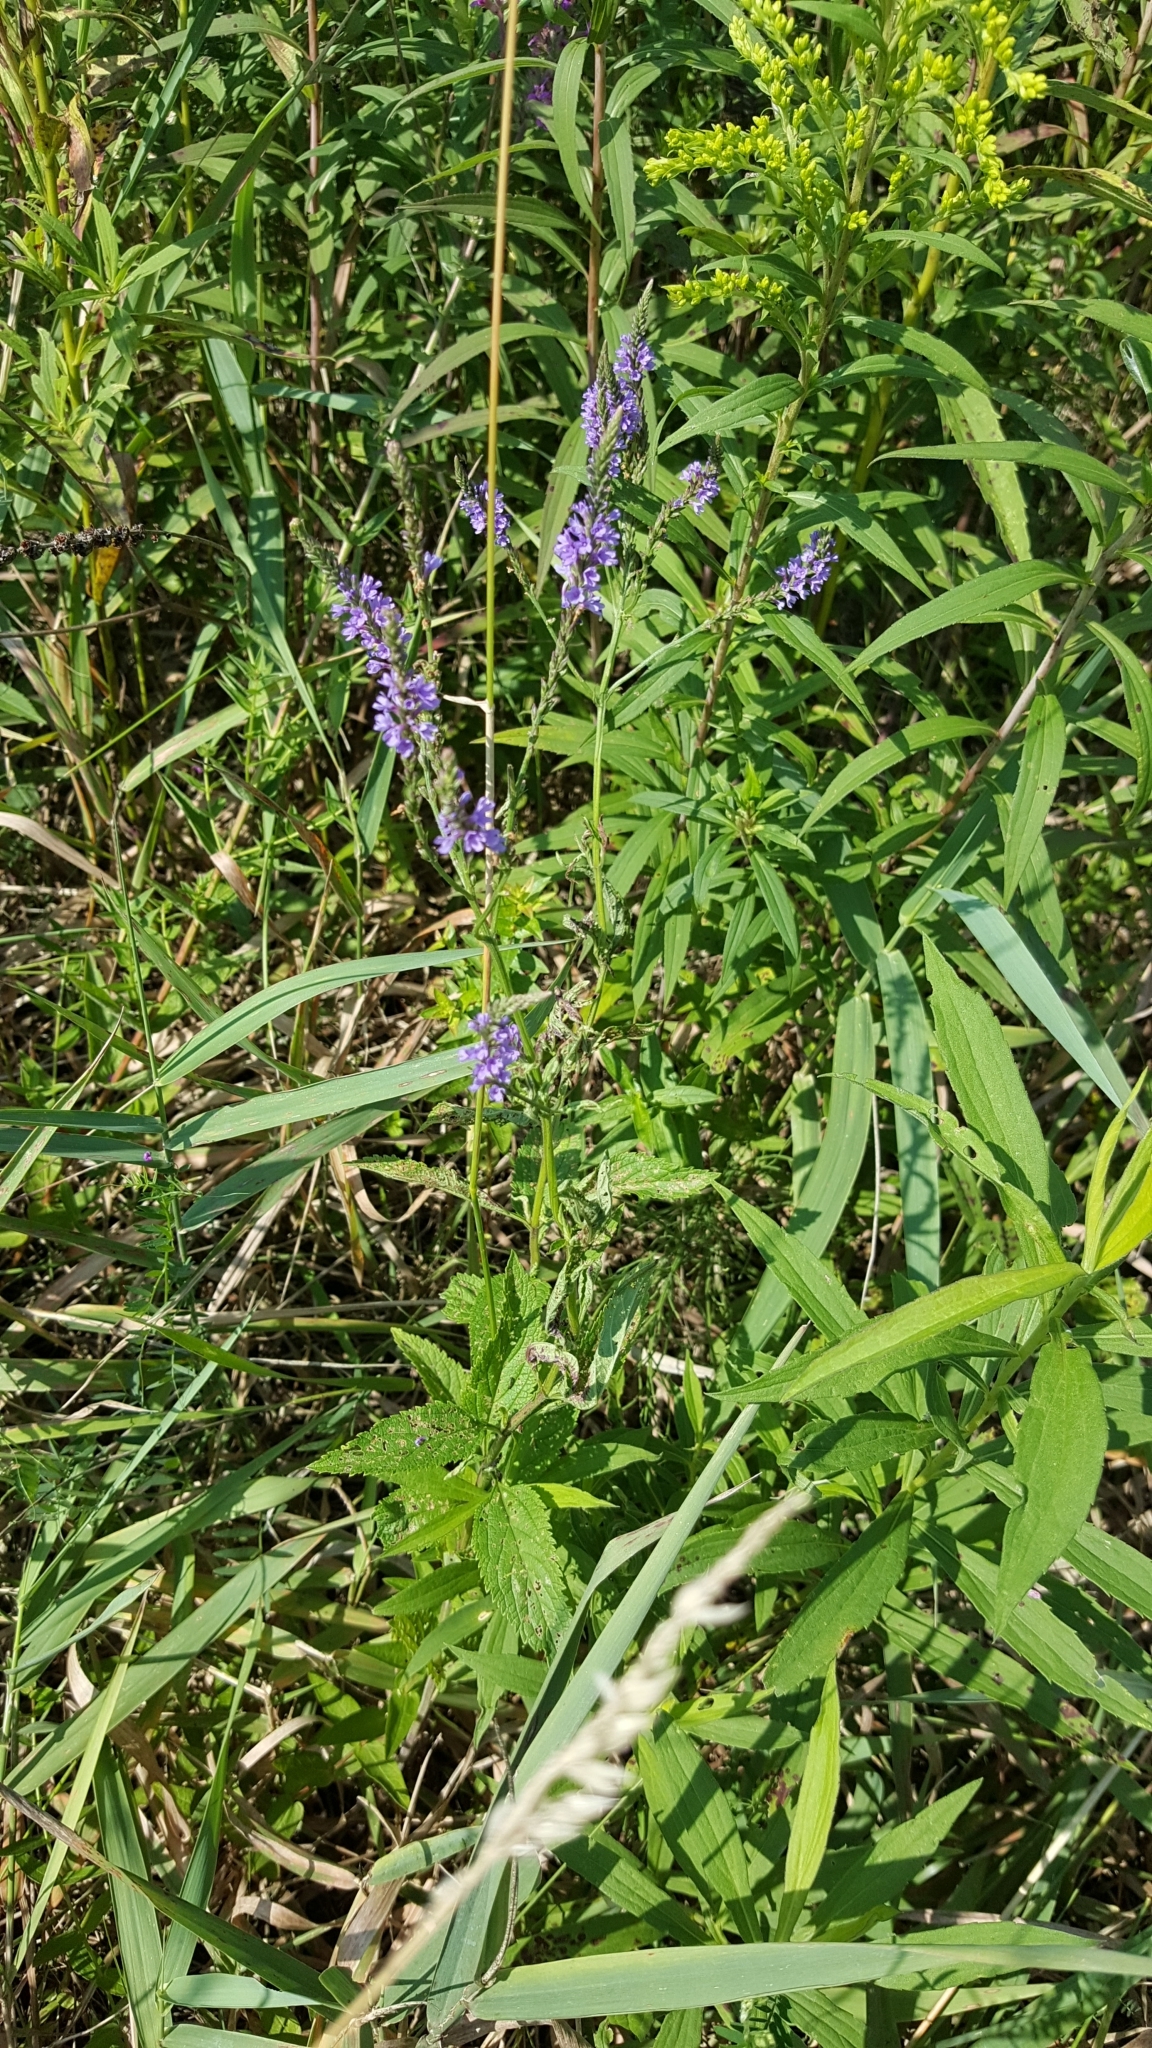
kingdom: Plantae
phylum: Tracheophyta
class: Magnoliopsida
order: Lamiales
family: Verbenaceae
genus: Verbena
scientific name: Verbena hastata
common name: American blue vervain
